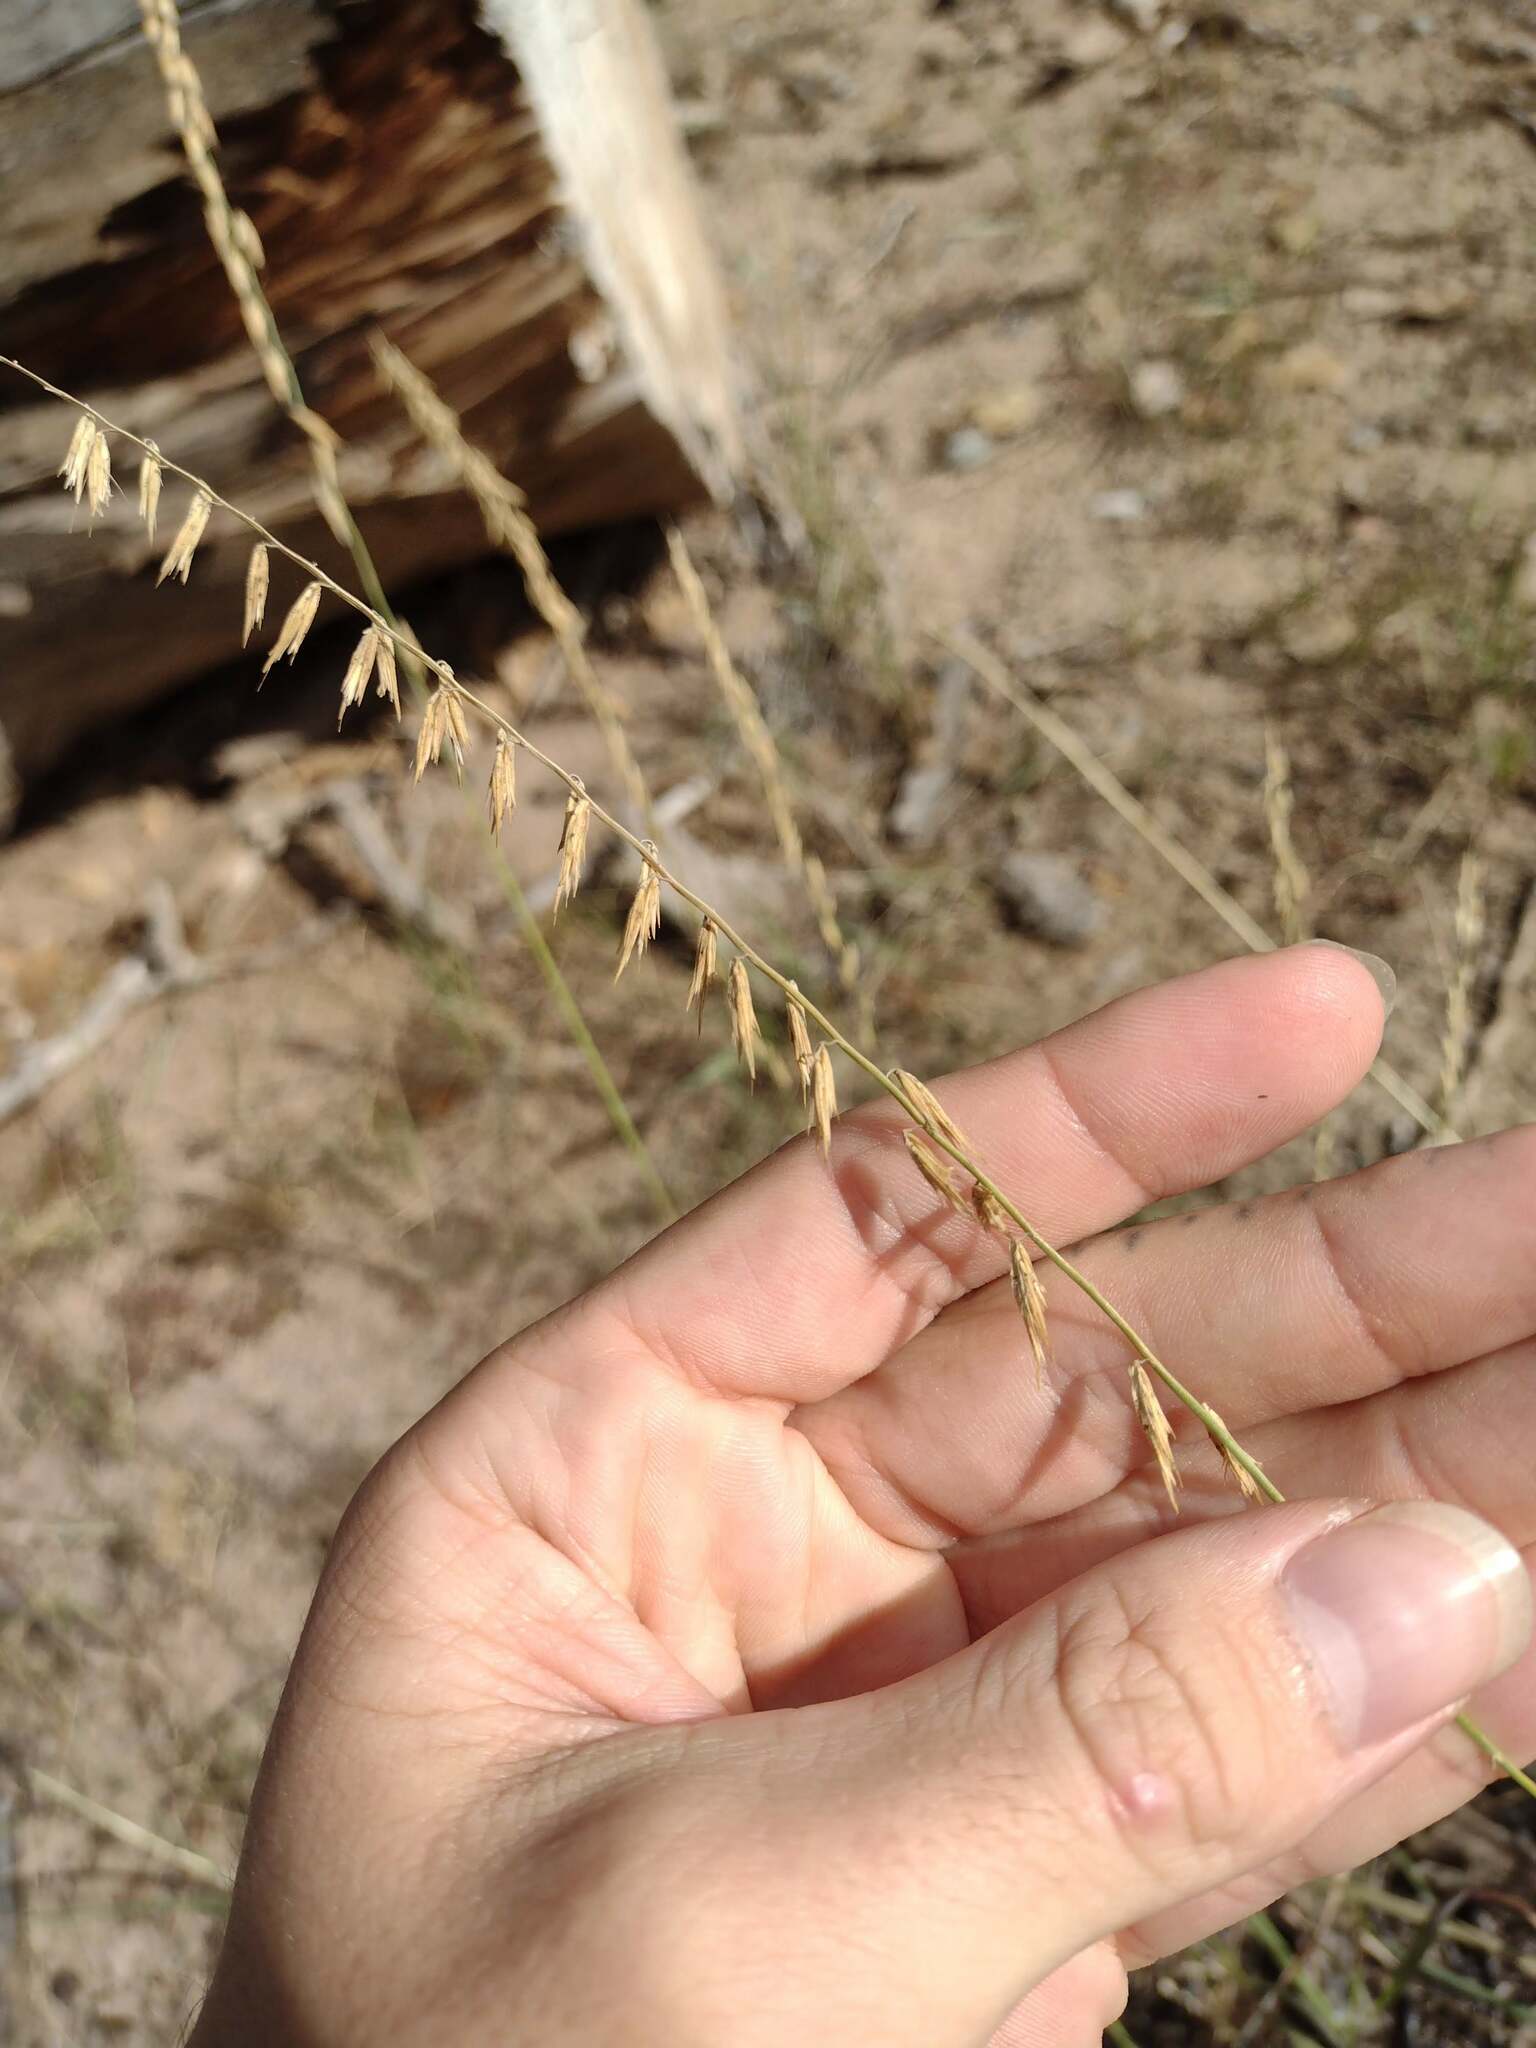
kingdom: Plantae
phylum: Tracheophyta
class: Liliopsida
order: Poales
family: Poaceae
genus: Bouteloua
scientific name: Bouteloua curtipendula
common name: Side-oats grama
